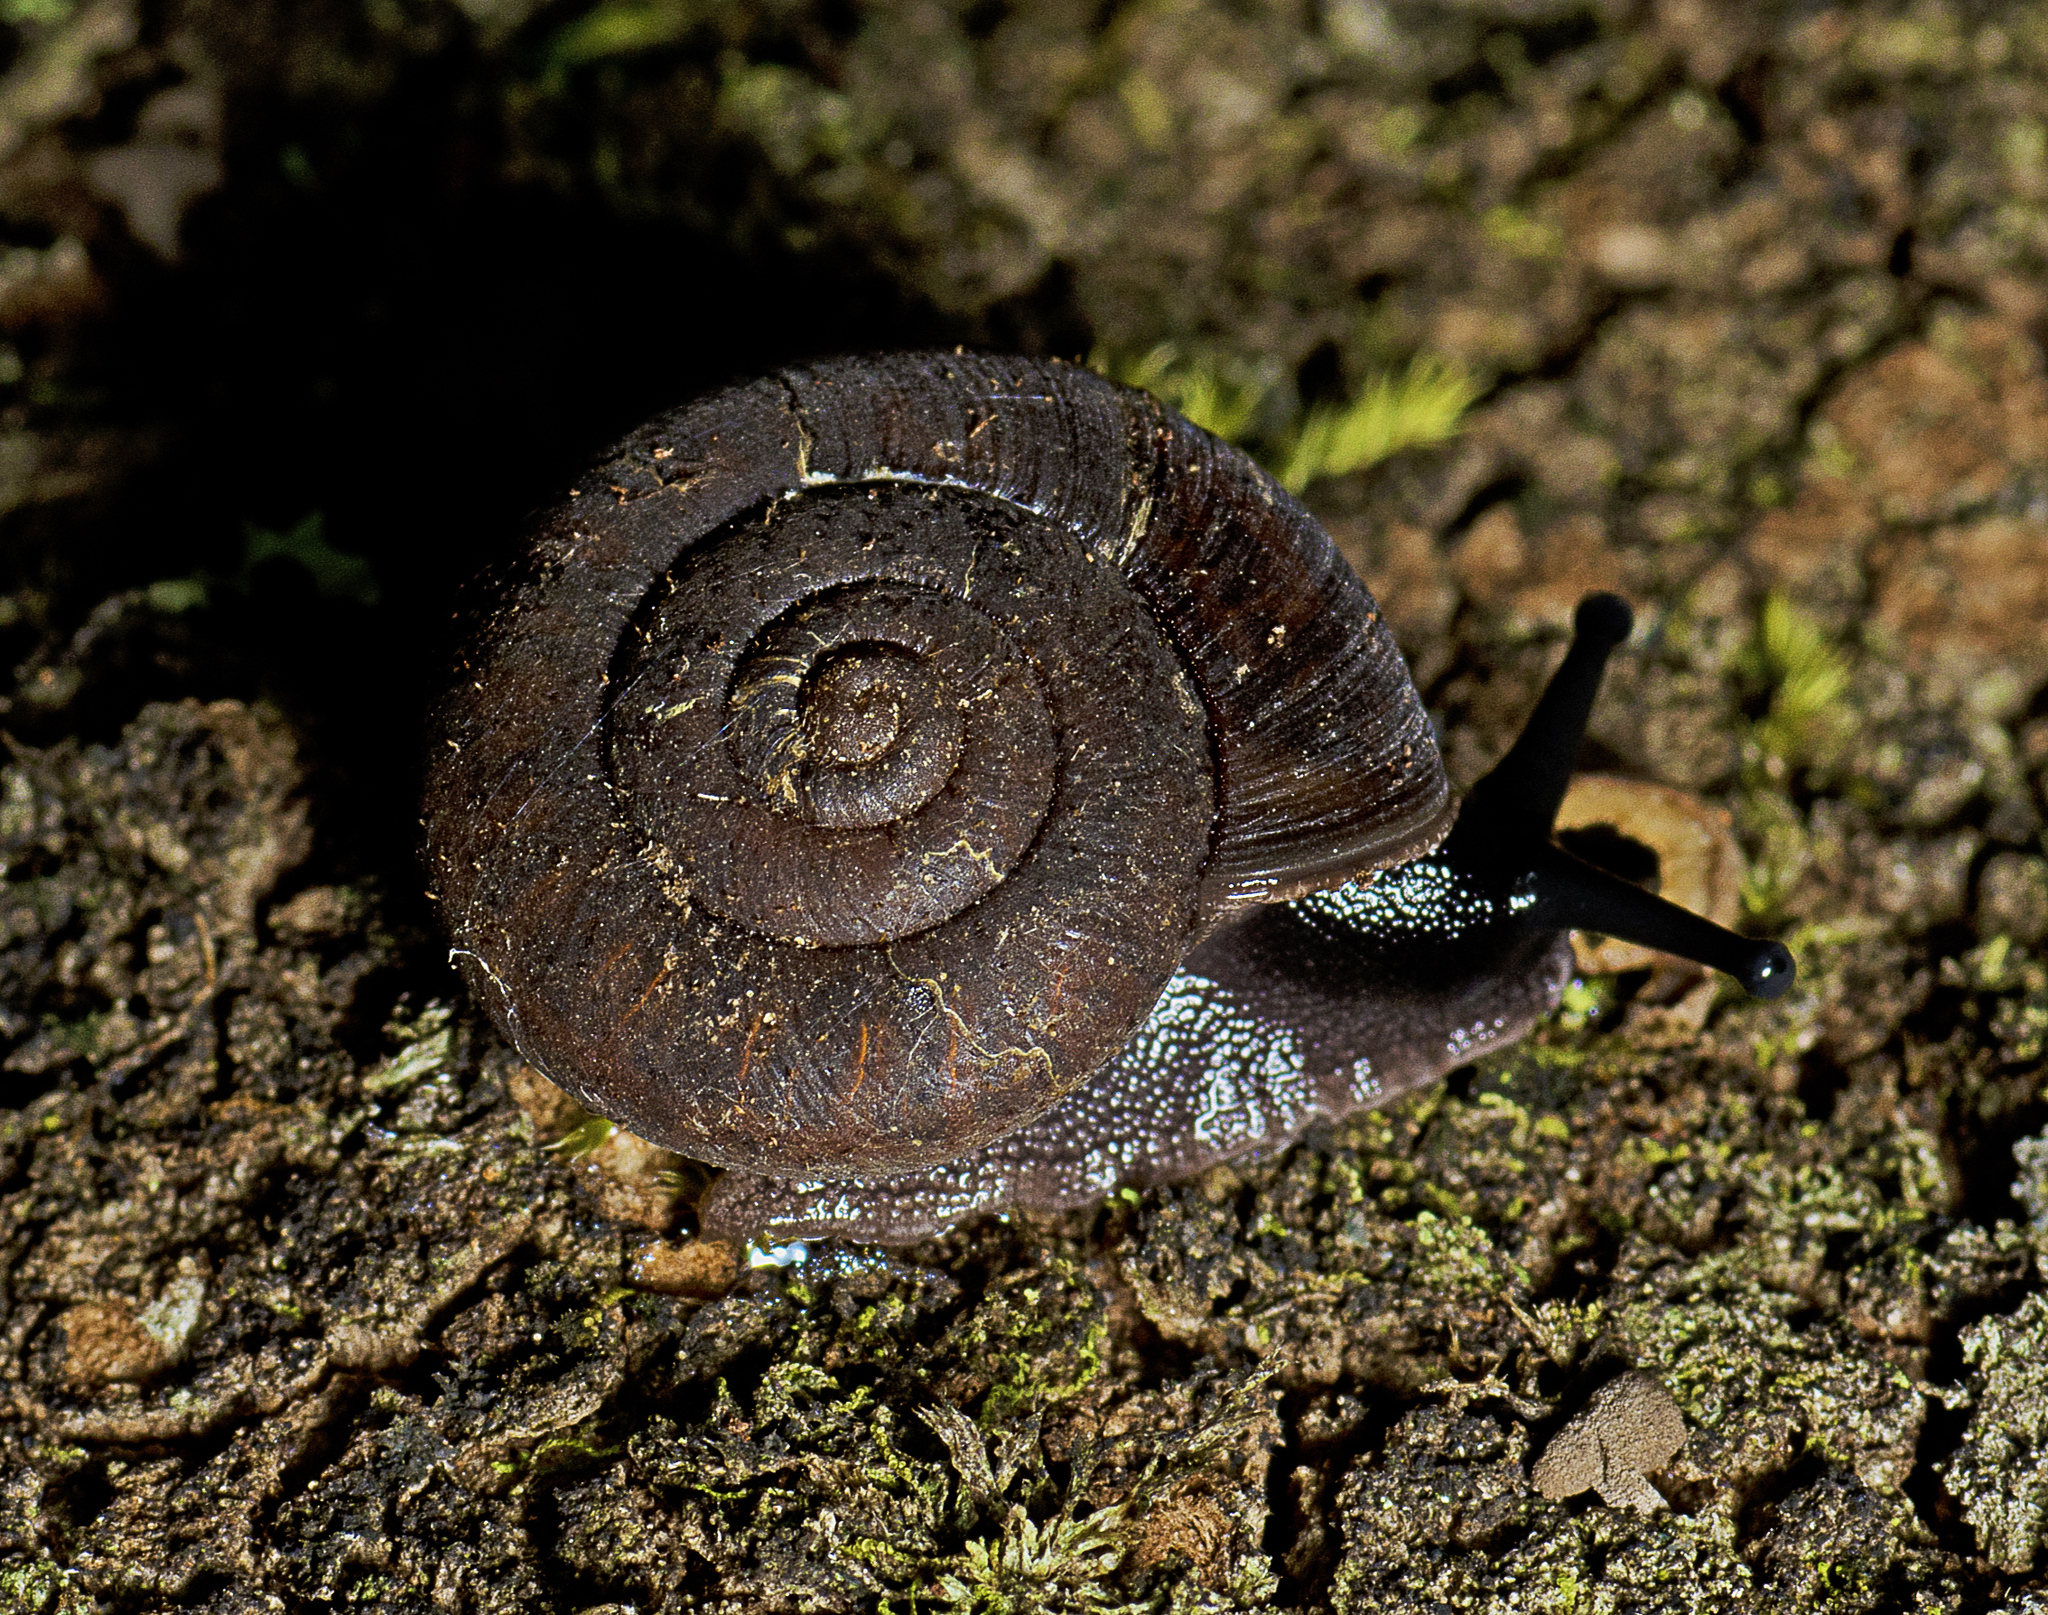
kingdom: Animalia
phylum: Mollusca
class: Gastropoda
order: Stylommatophora
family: Camaenidae
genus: Ramogenia
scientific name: Ramogenia challengeri
